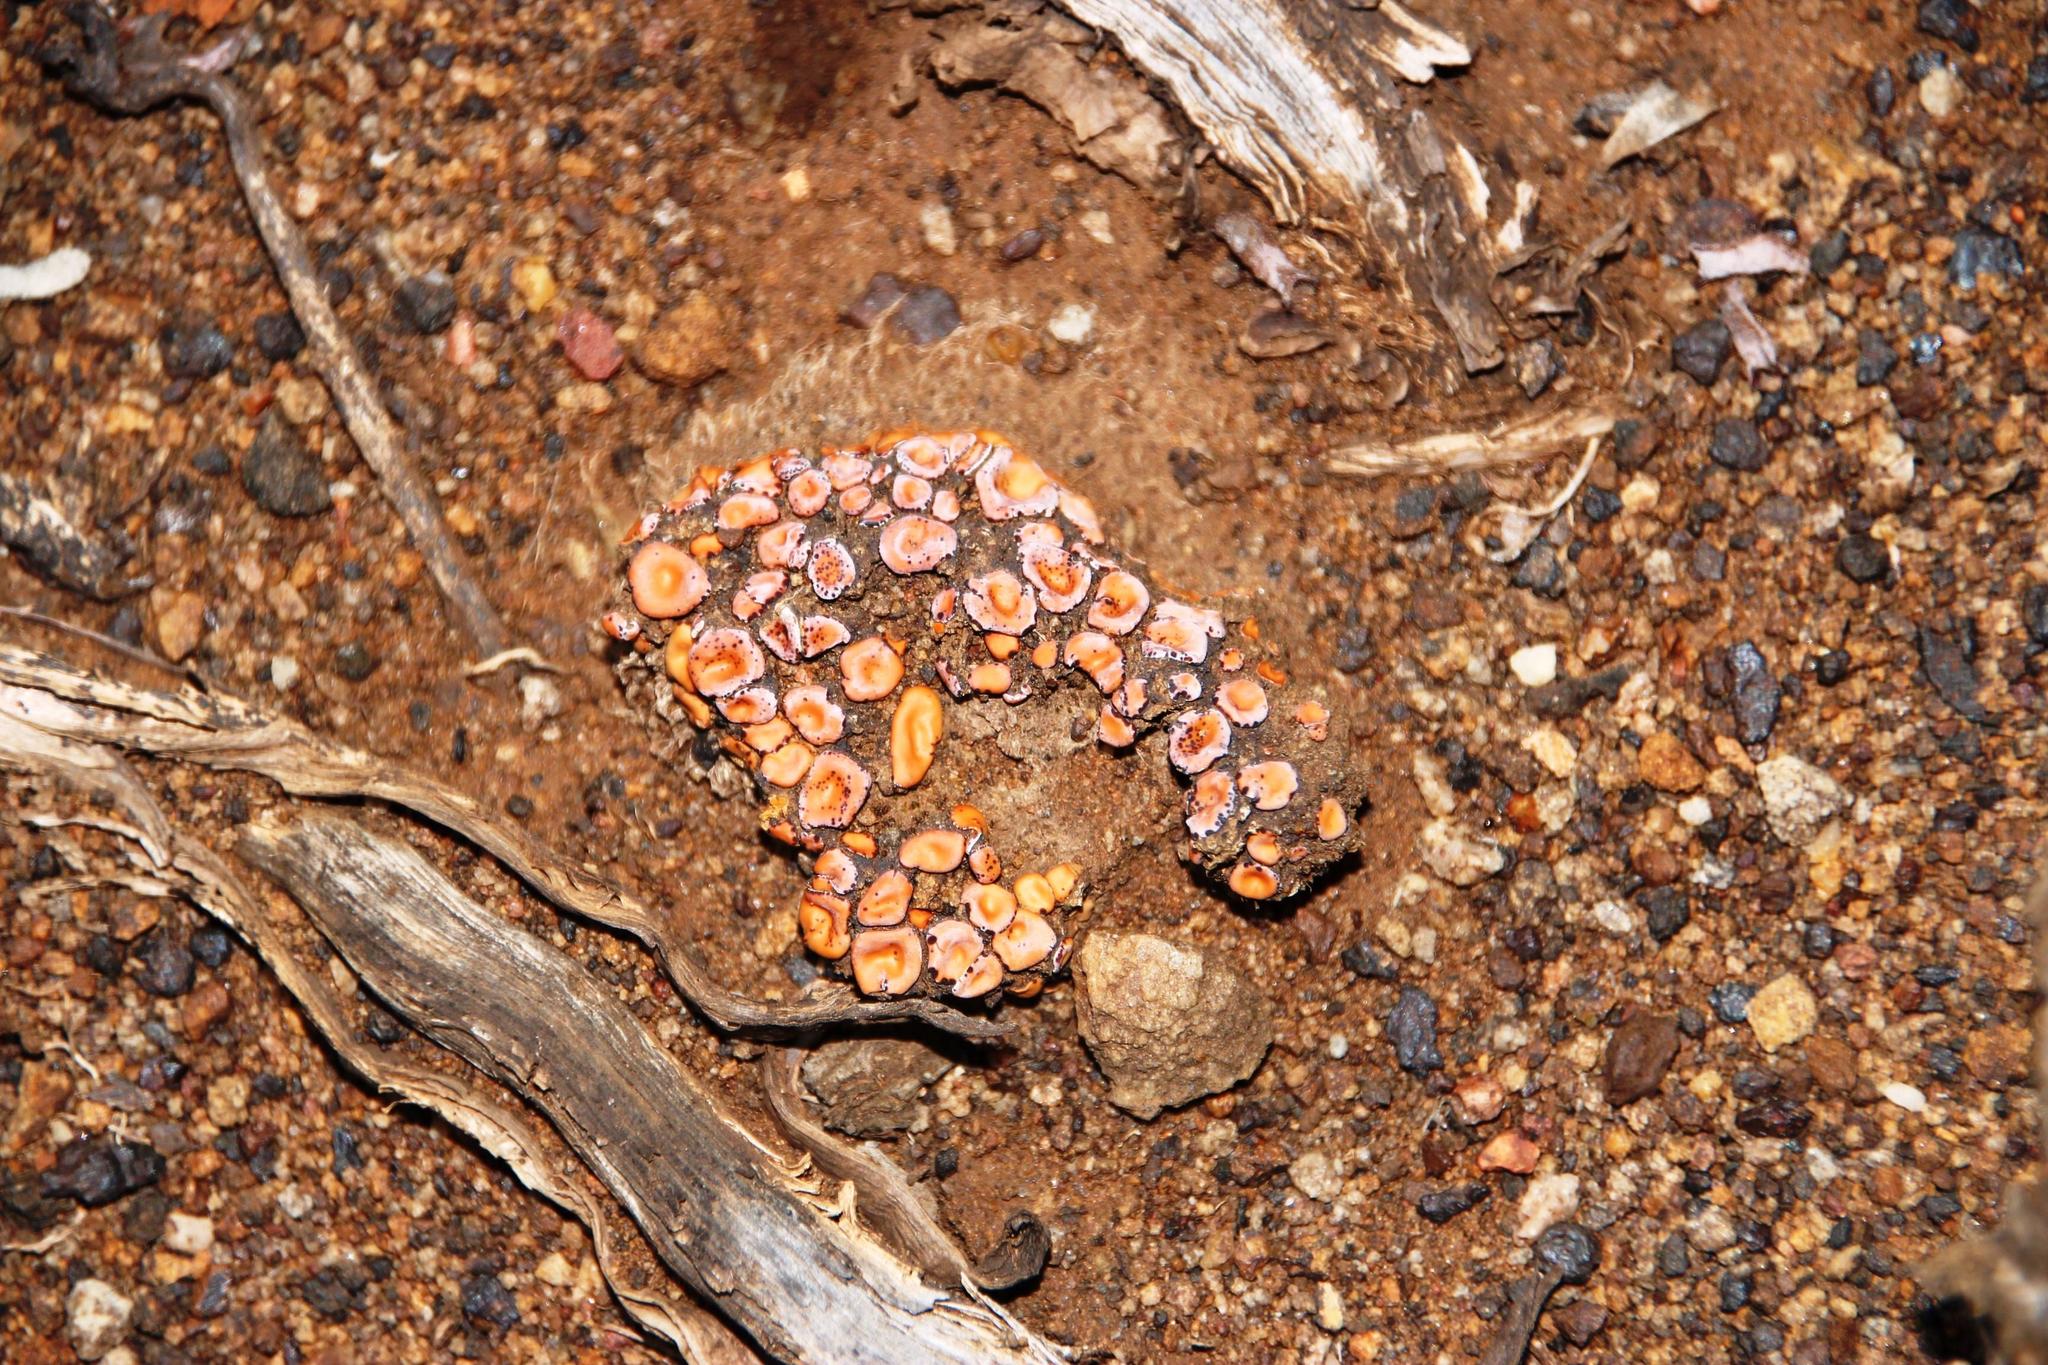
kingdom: Fungi
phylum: Ascomycota
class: Lecanoromycetes
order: Lecanorales
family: Psoraceae
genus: Psora
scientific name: Psora crenata
